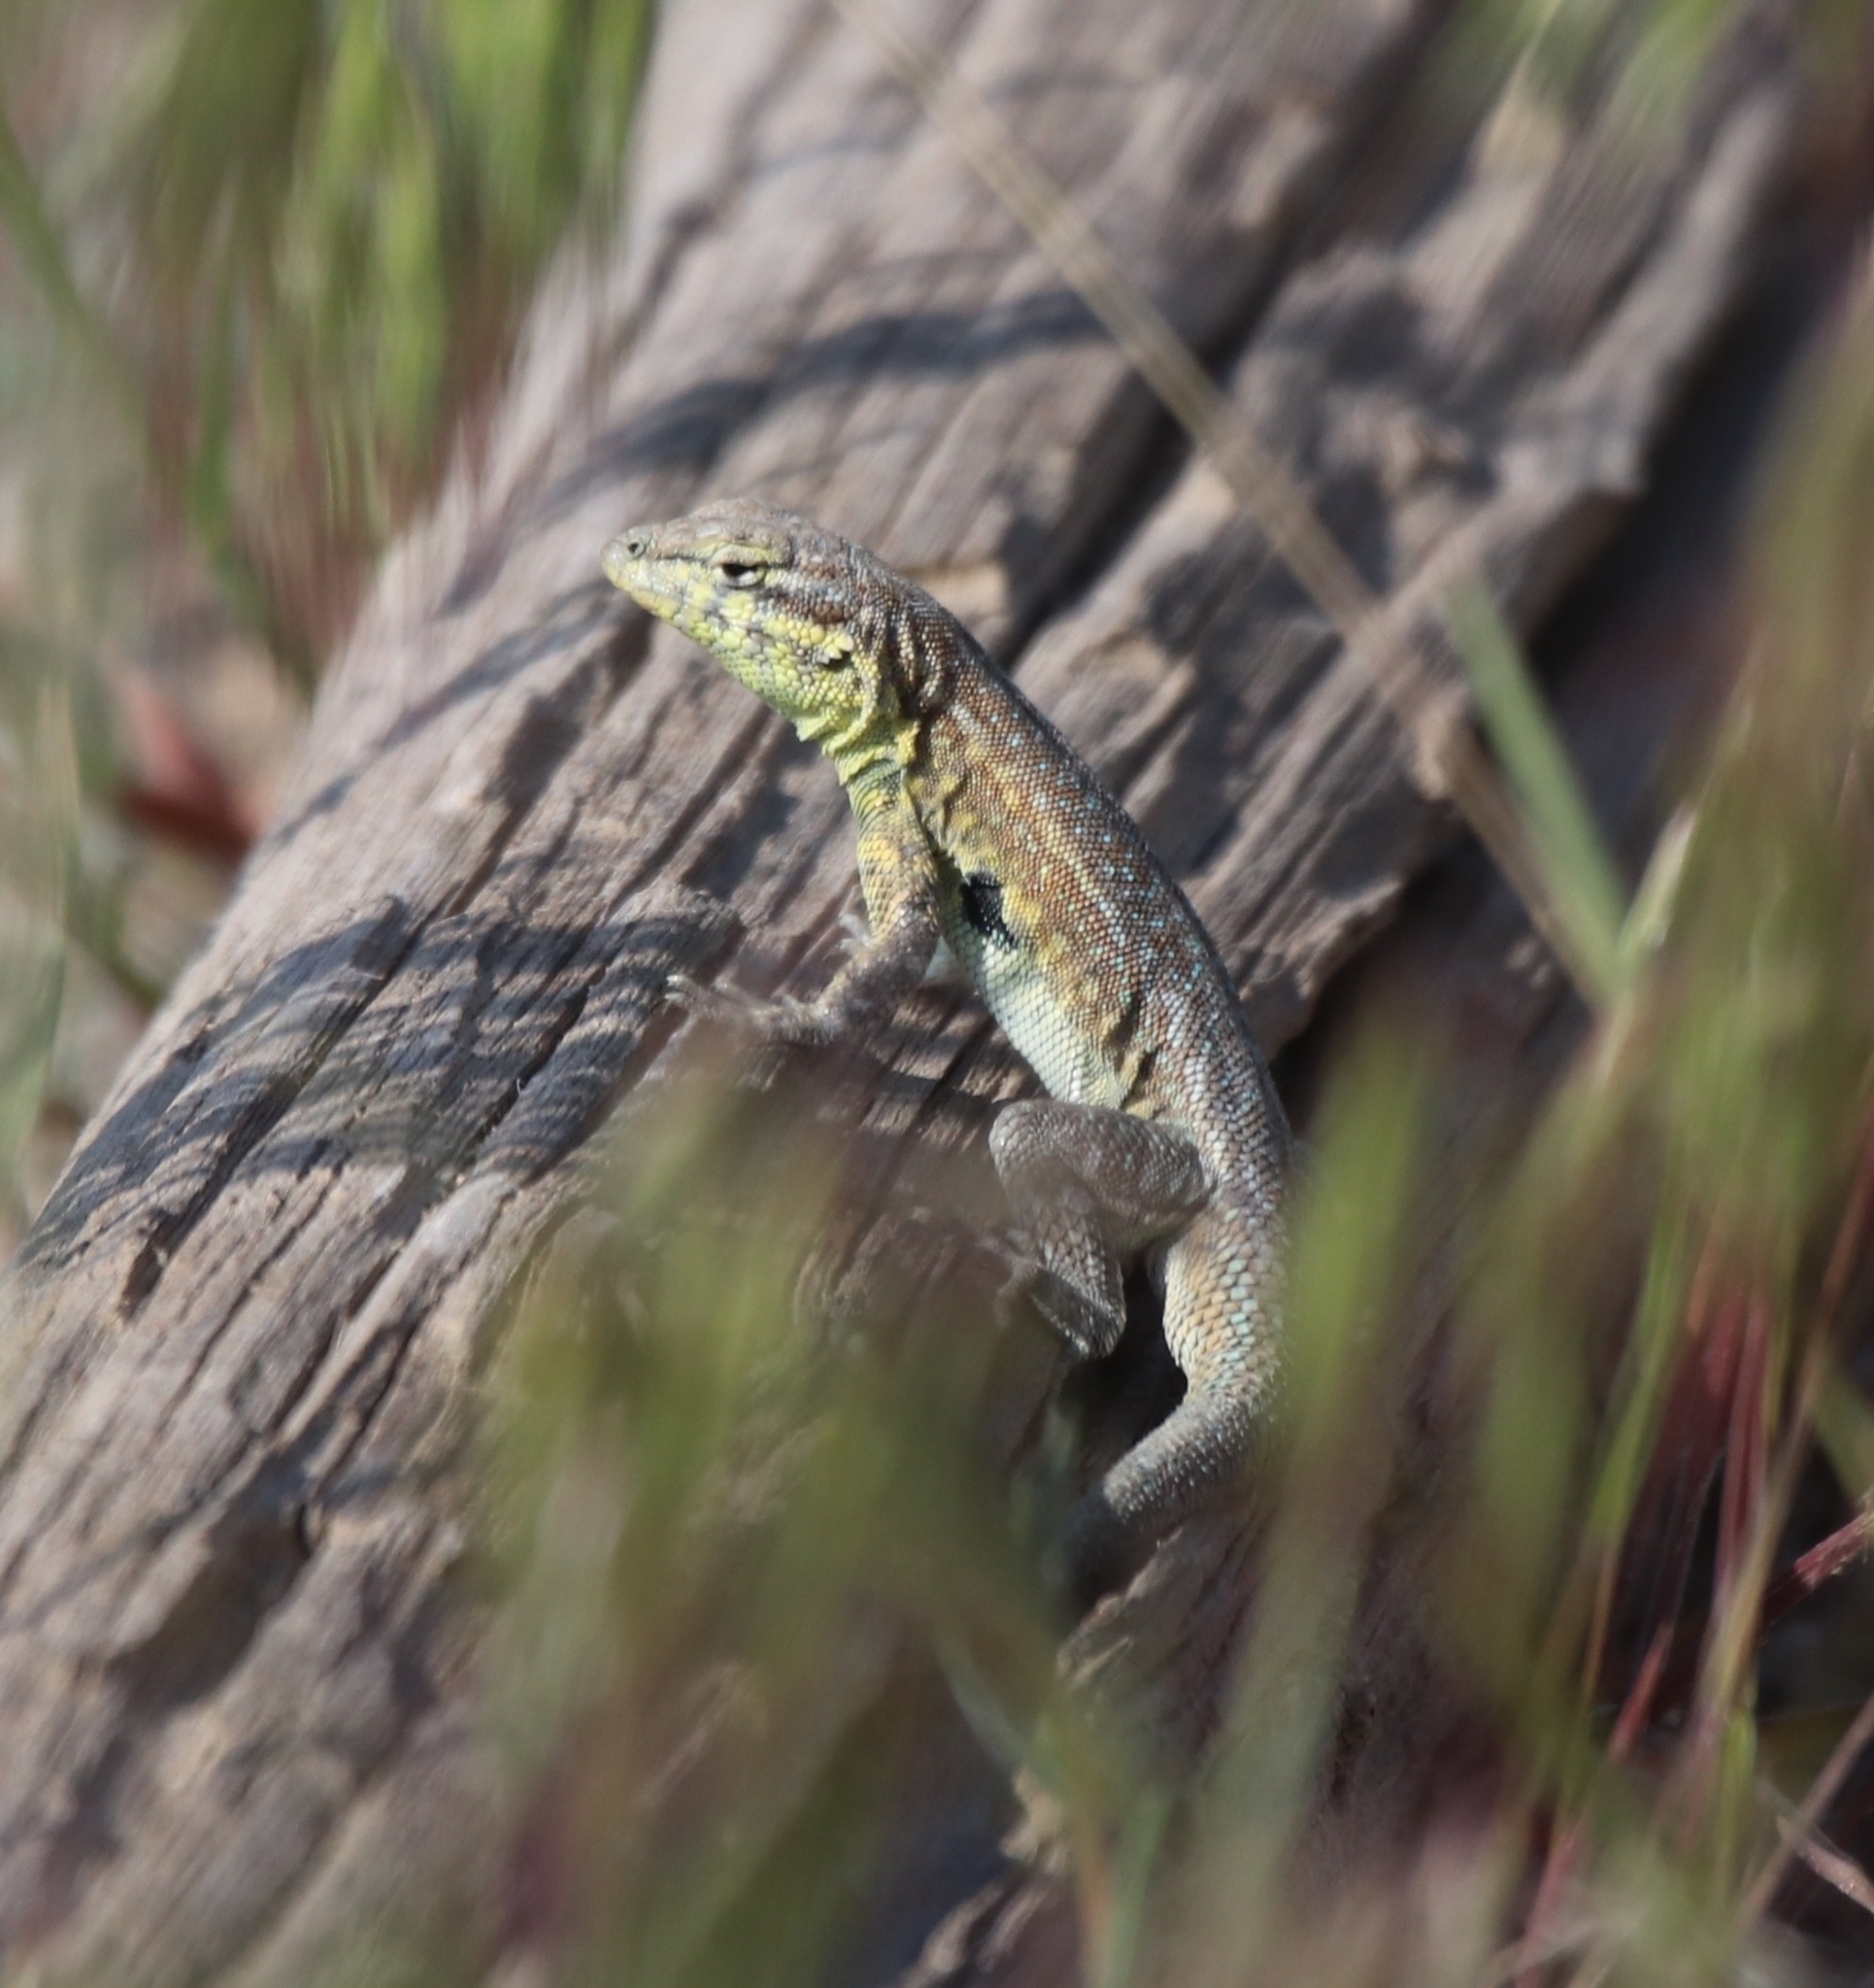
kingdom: Animalia
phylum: Chordata
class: Squamata
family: Phrynosomatidae
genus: Uta
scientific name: Uta stansburiana
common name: Side-blotched lizard
